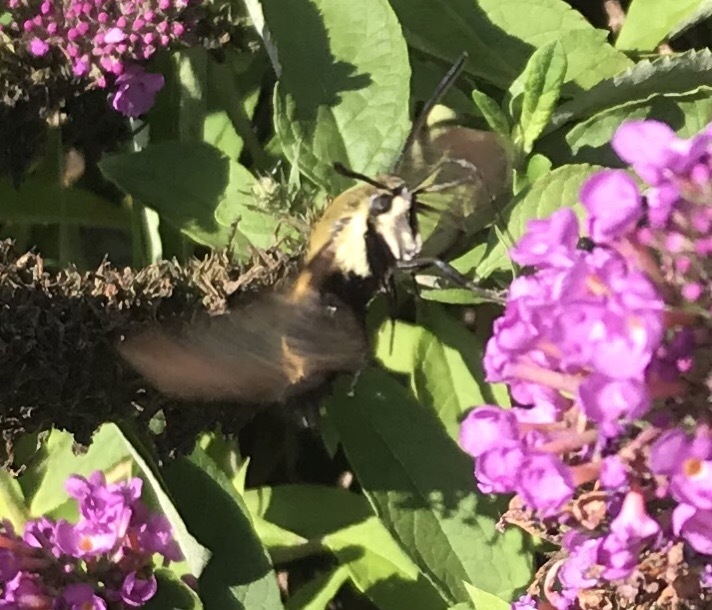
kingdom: Animalia
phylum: Arthropoda
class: Insecta
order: Lepidoptera
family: Sphingidae
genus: Hemaris
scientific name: Hemaris diffinis
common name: Bumblebee moth
